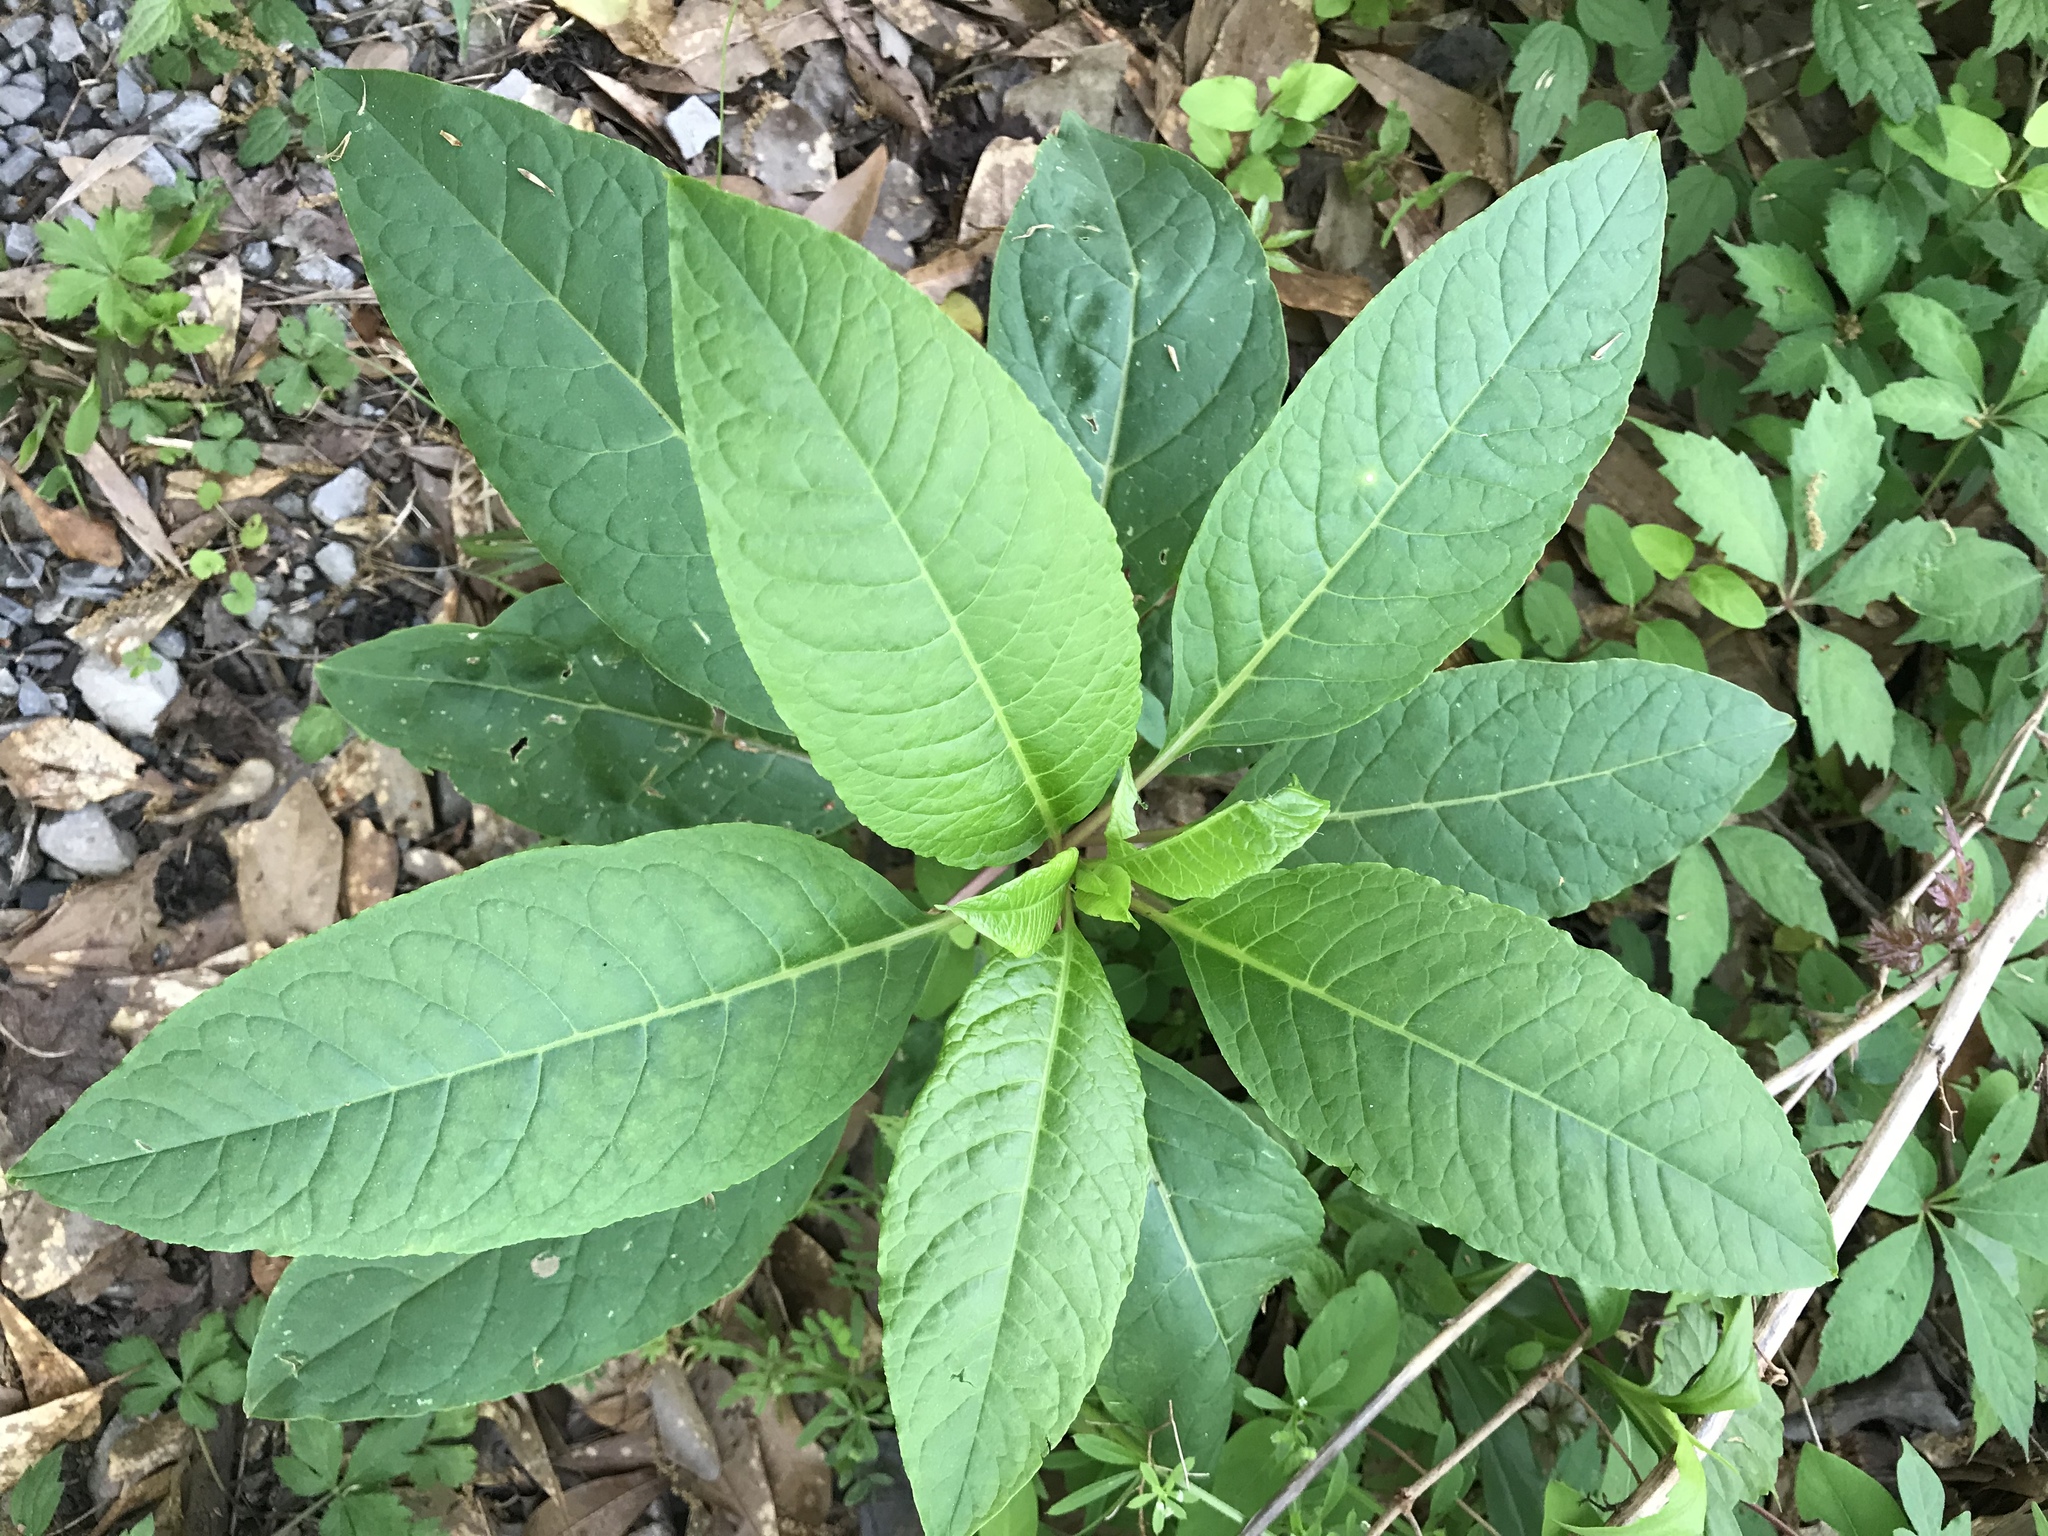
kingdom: Plantae
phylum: Tracheophyta
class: Magnoliopsida
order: Caryophyllales
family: Phytolaccaceae
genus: Phytolacca
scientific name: Phytolacca americana
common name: American pokeweed
